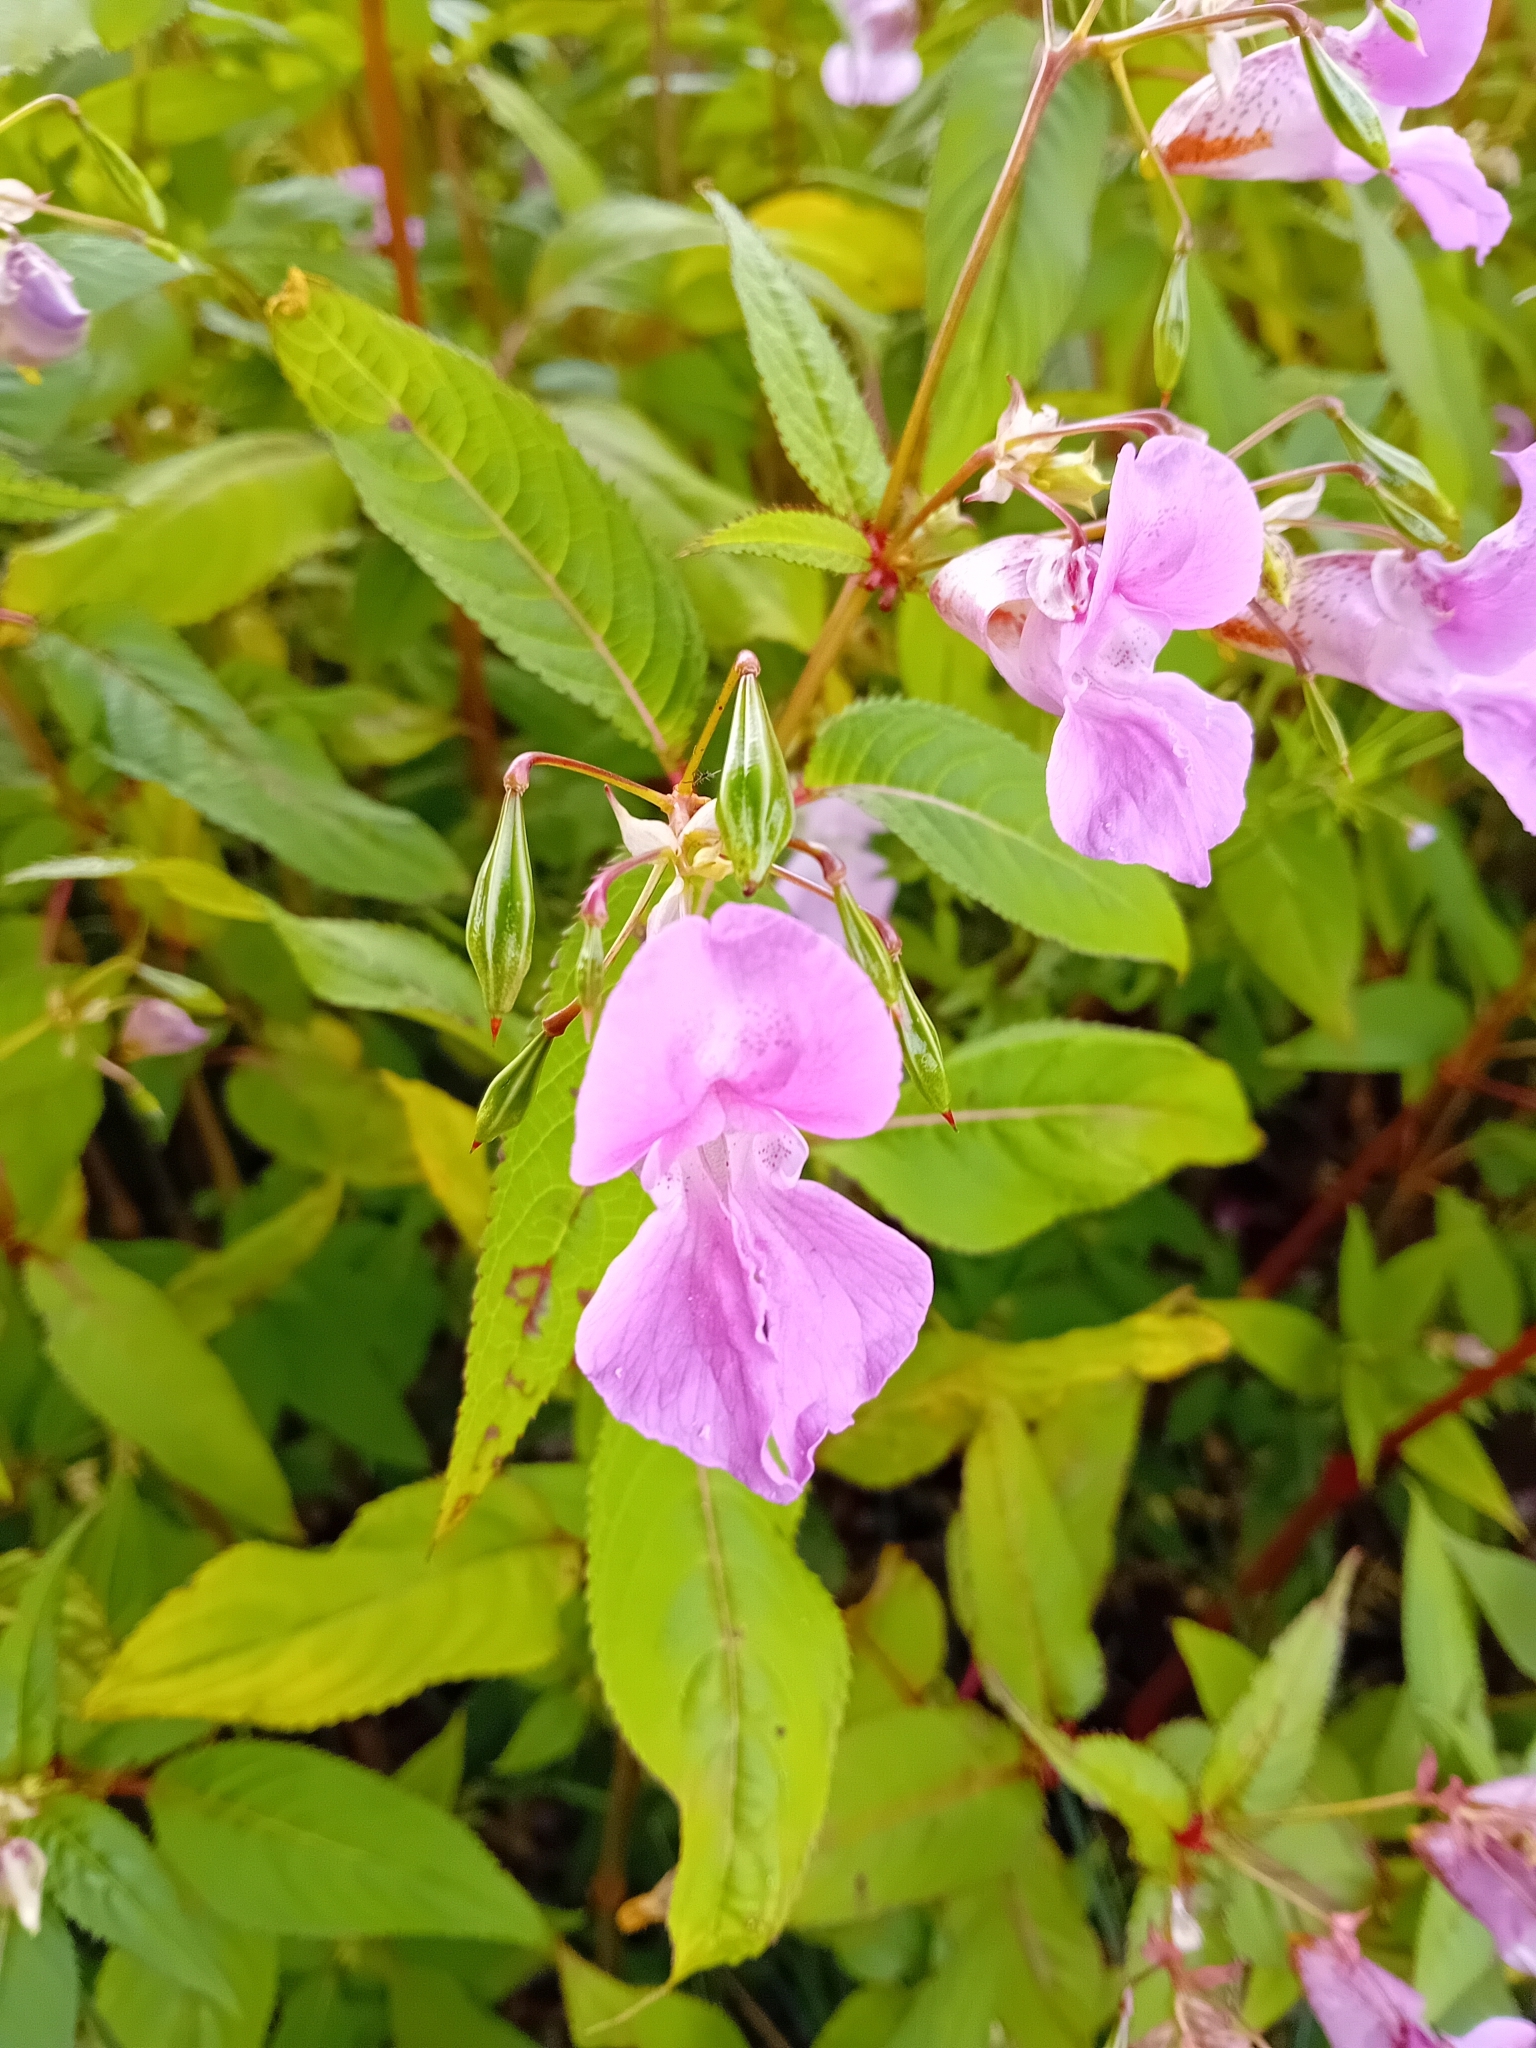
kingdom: Plantae
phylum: Tracheophyta
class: Magnoliopsida
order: Ericales
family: Balsaminaceae
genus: Impatiens
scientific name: Impatiens glandulifera
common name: Himalayan balsam
